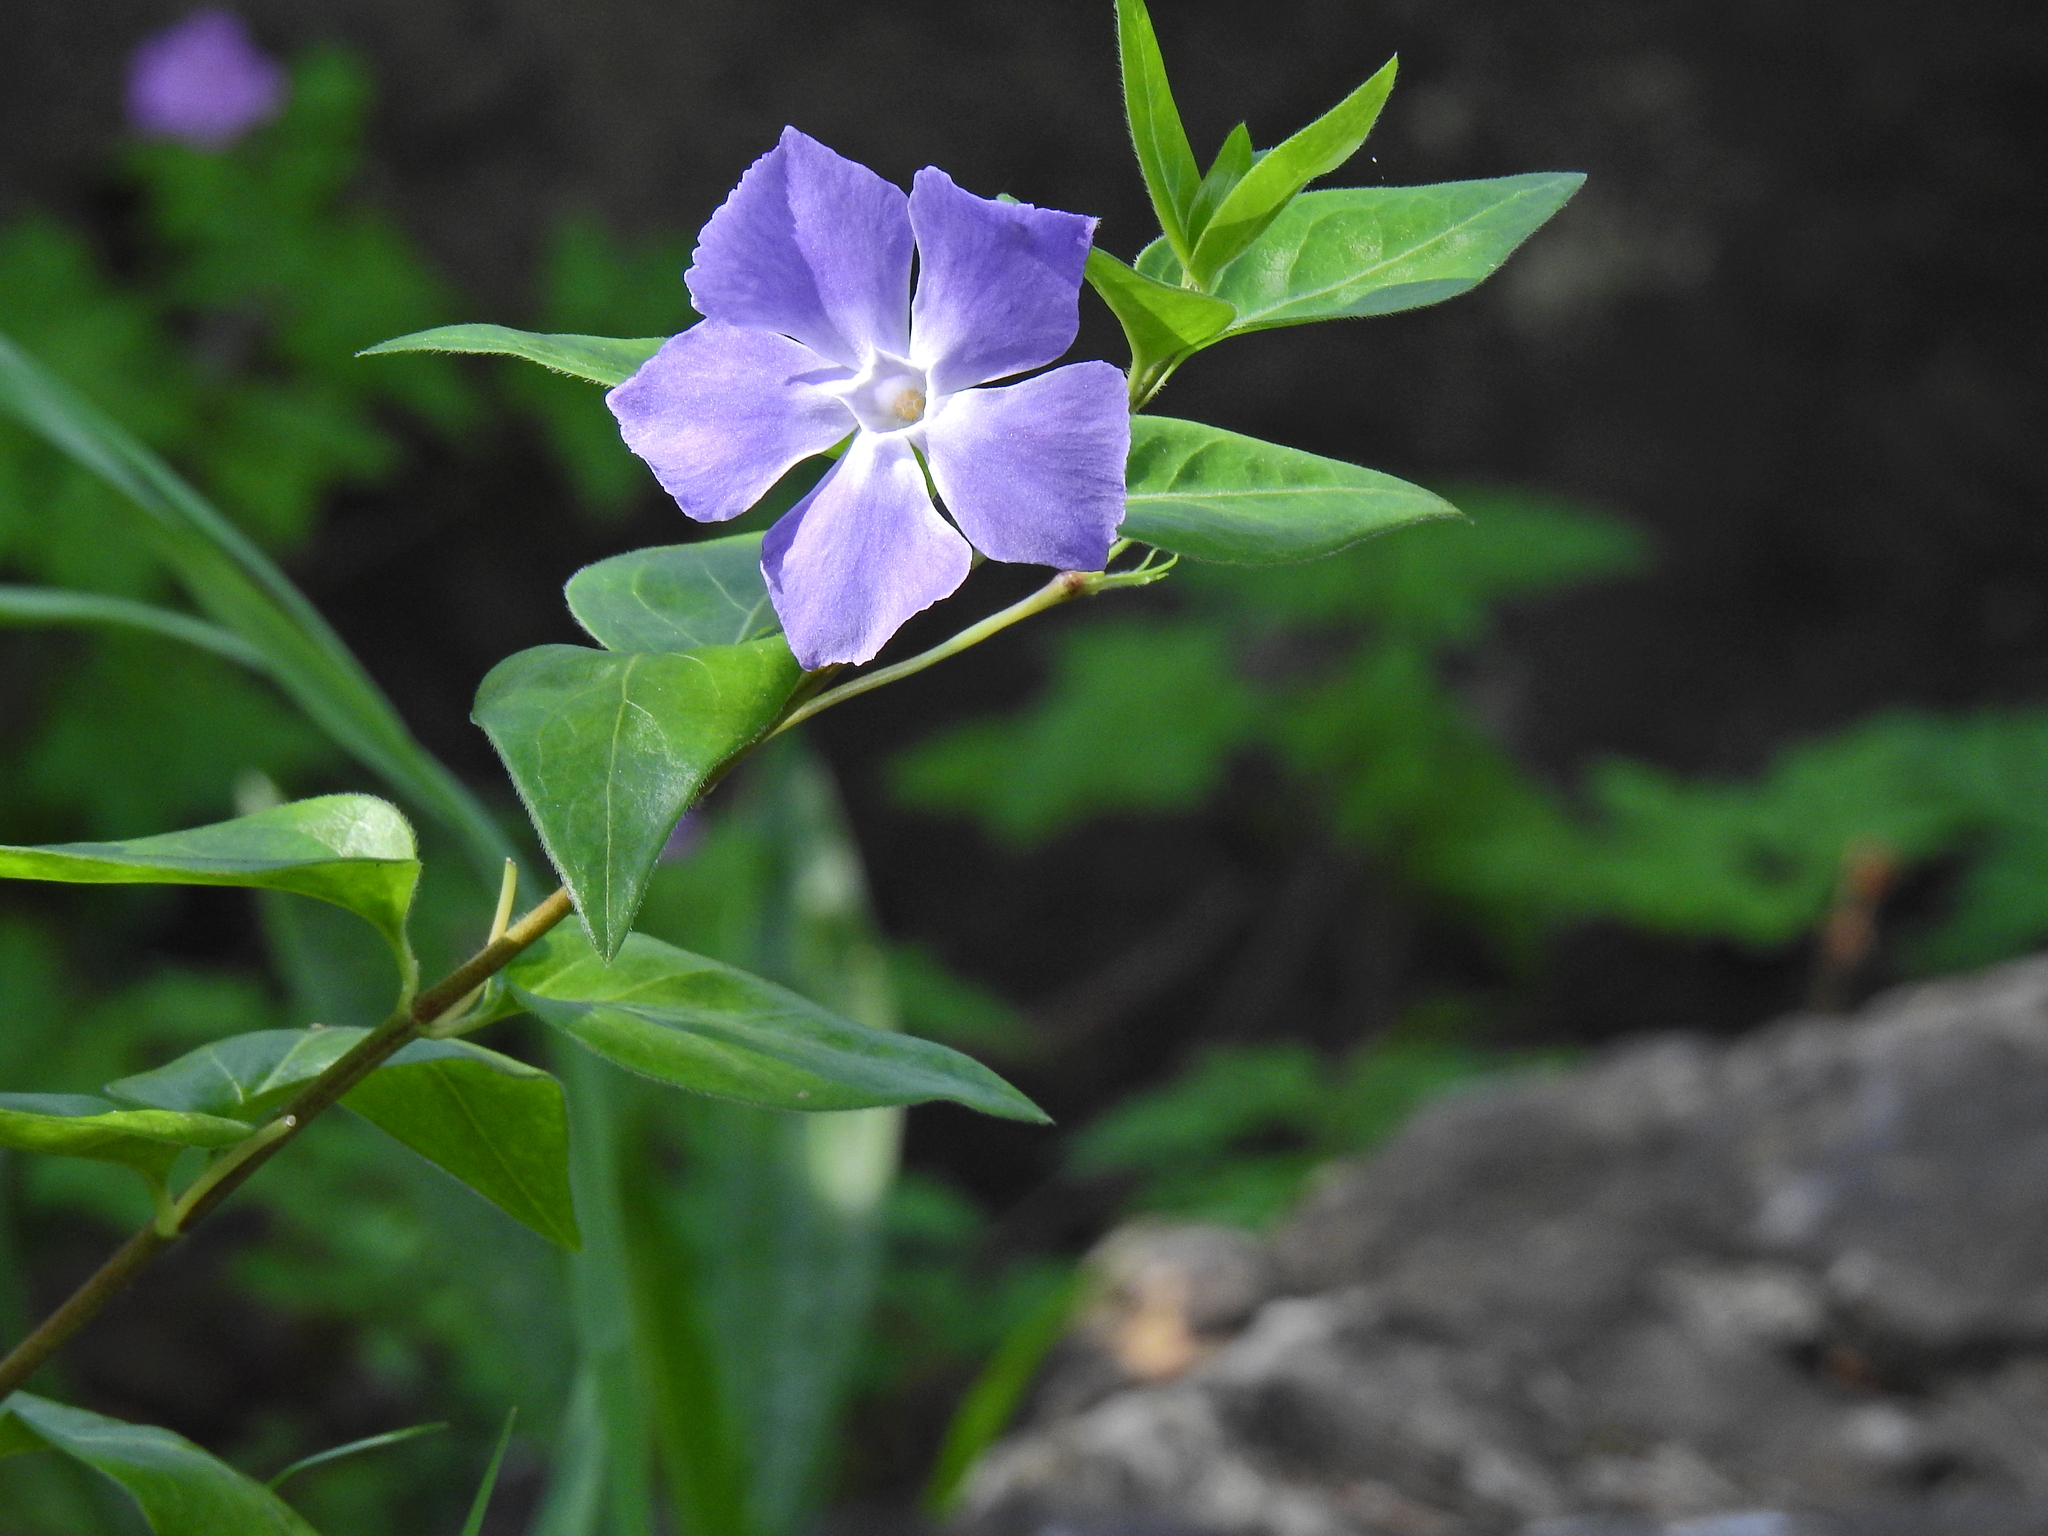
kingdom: Plantae
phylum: Tracheophyta
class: Magnoliopsida
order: Gentianales
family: Apocynaceae
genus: Vinca
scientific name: Vinca major
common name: Greater periwinkle
